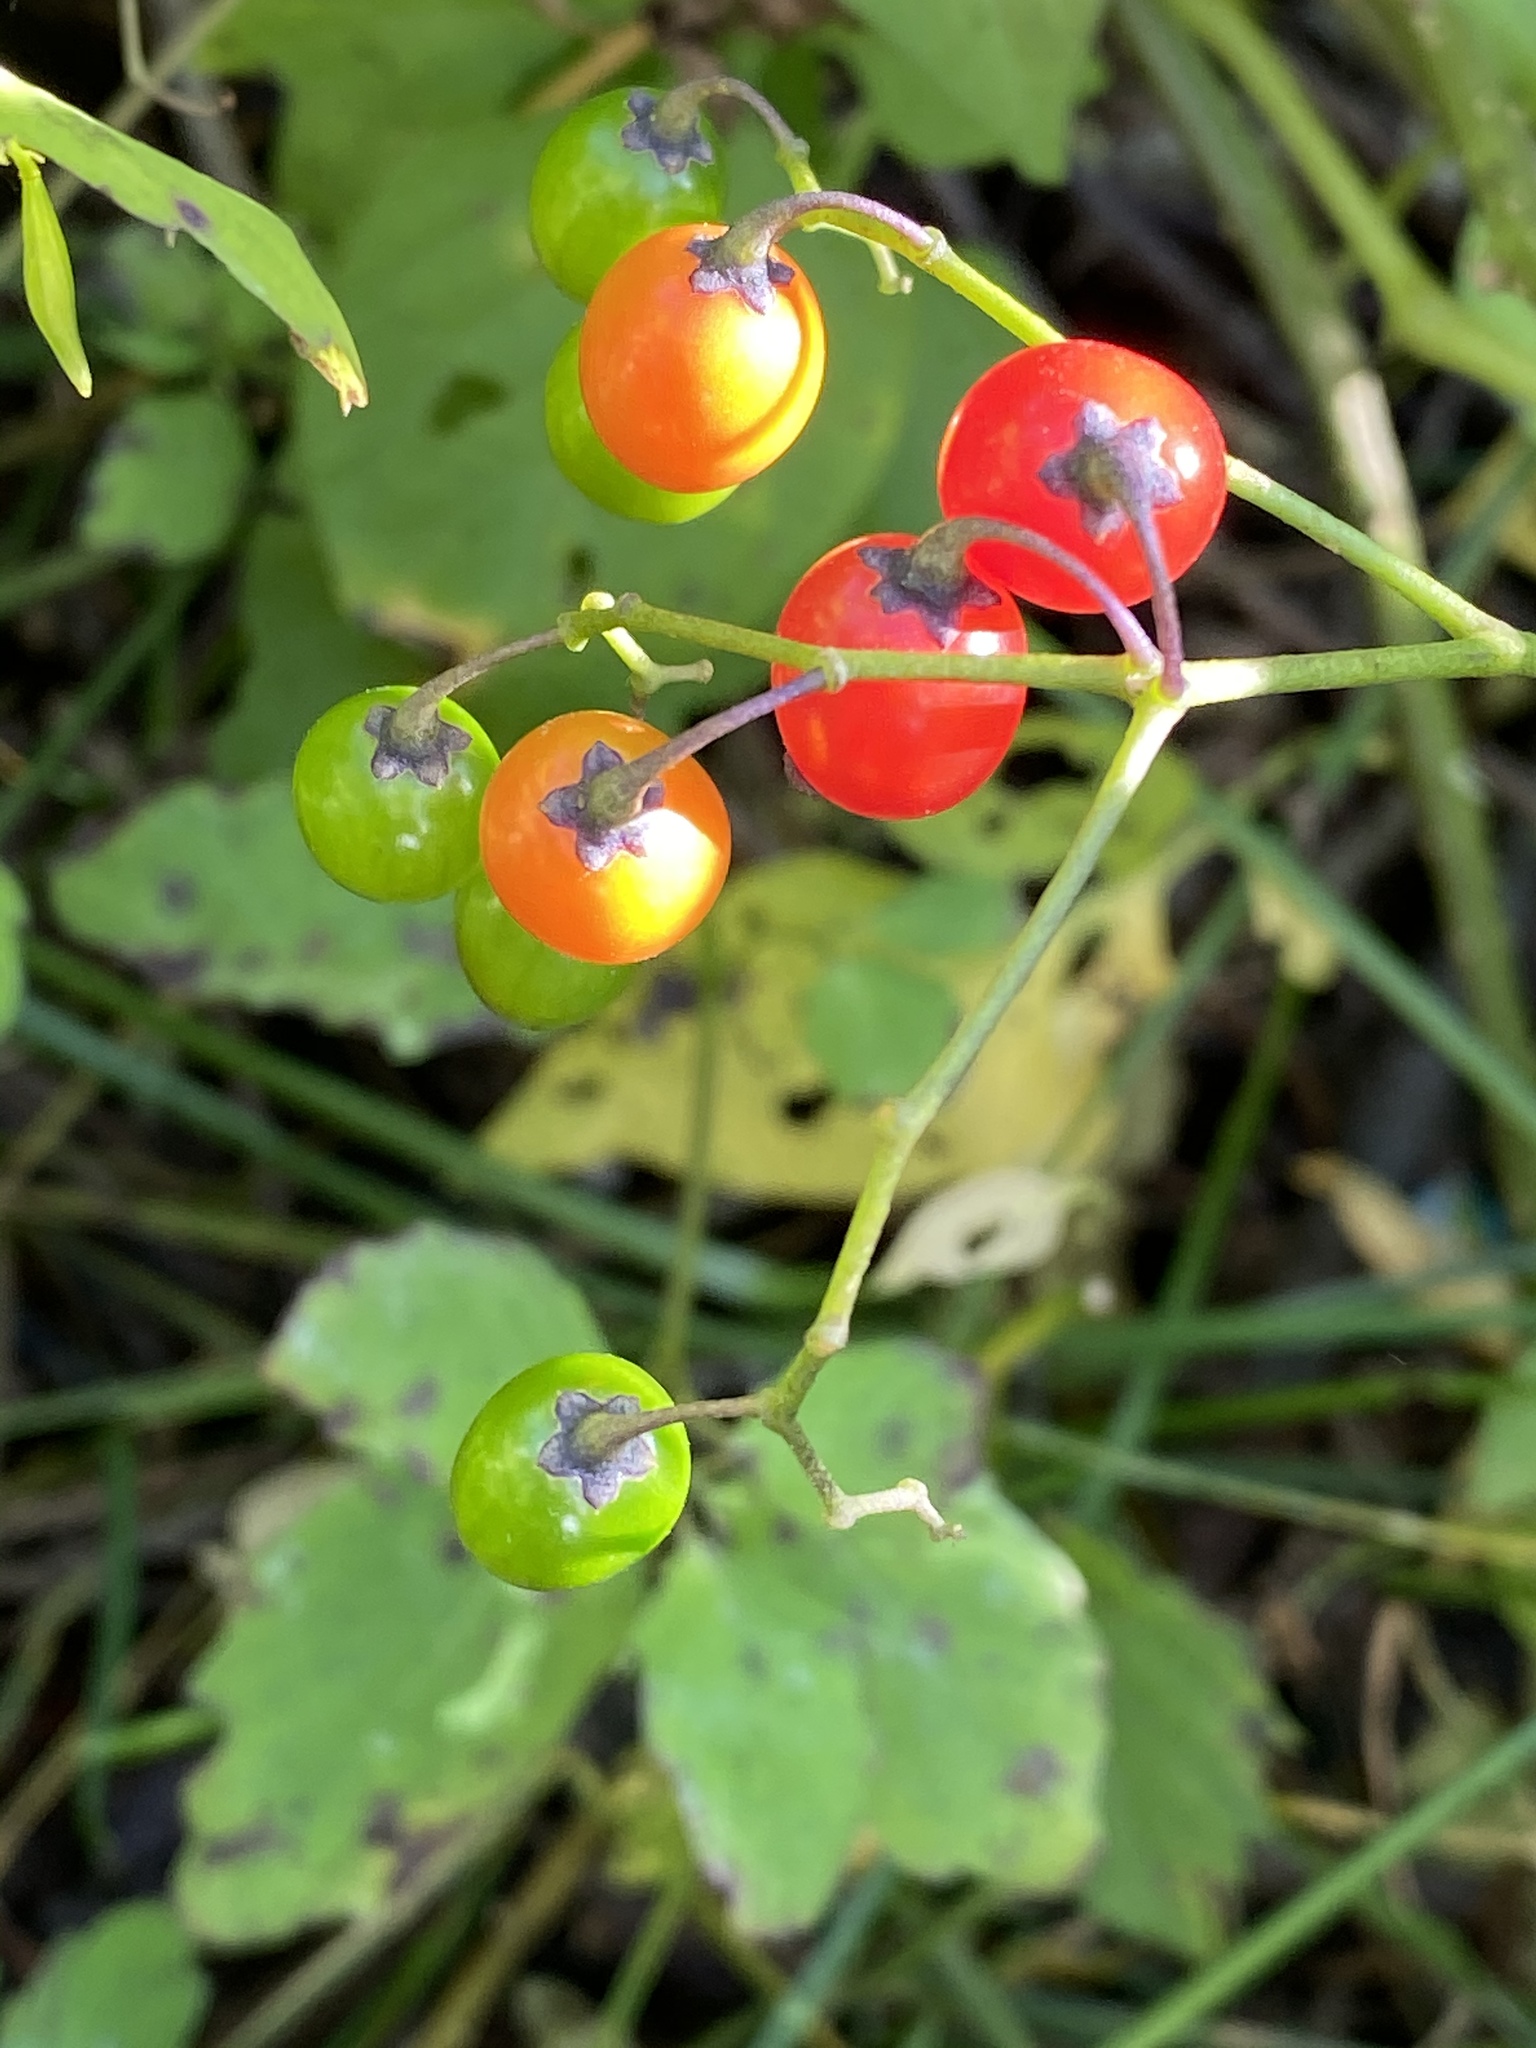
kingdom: Plantae
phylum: Tracheophyta
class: Magnoliopsida
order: Solanales
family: Solanaceae
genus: Solanum
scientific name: Solanum dulcamara
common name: Climbing nightshade
